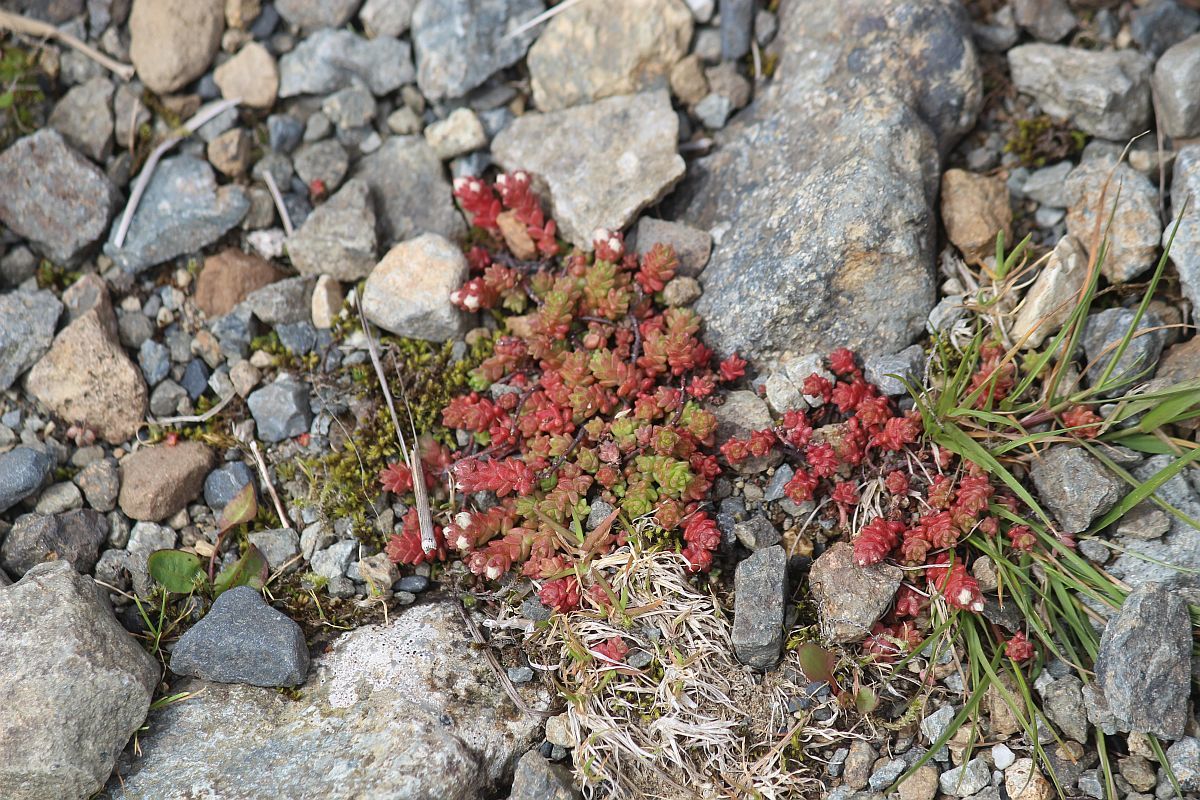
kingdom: Plantae
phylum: Tracheophyta
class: Magnoliopsida
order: Saxifragales
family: Crassulaceae
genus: Sedum
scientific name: Sedum anglicum
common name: English stonecrop
